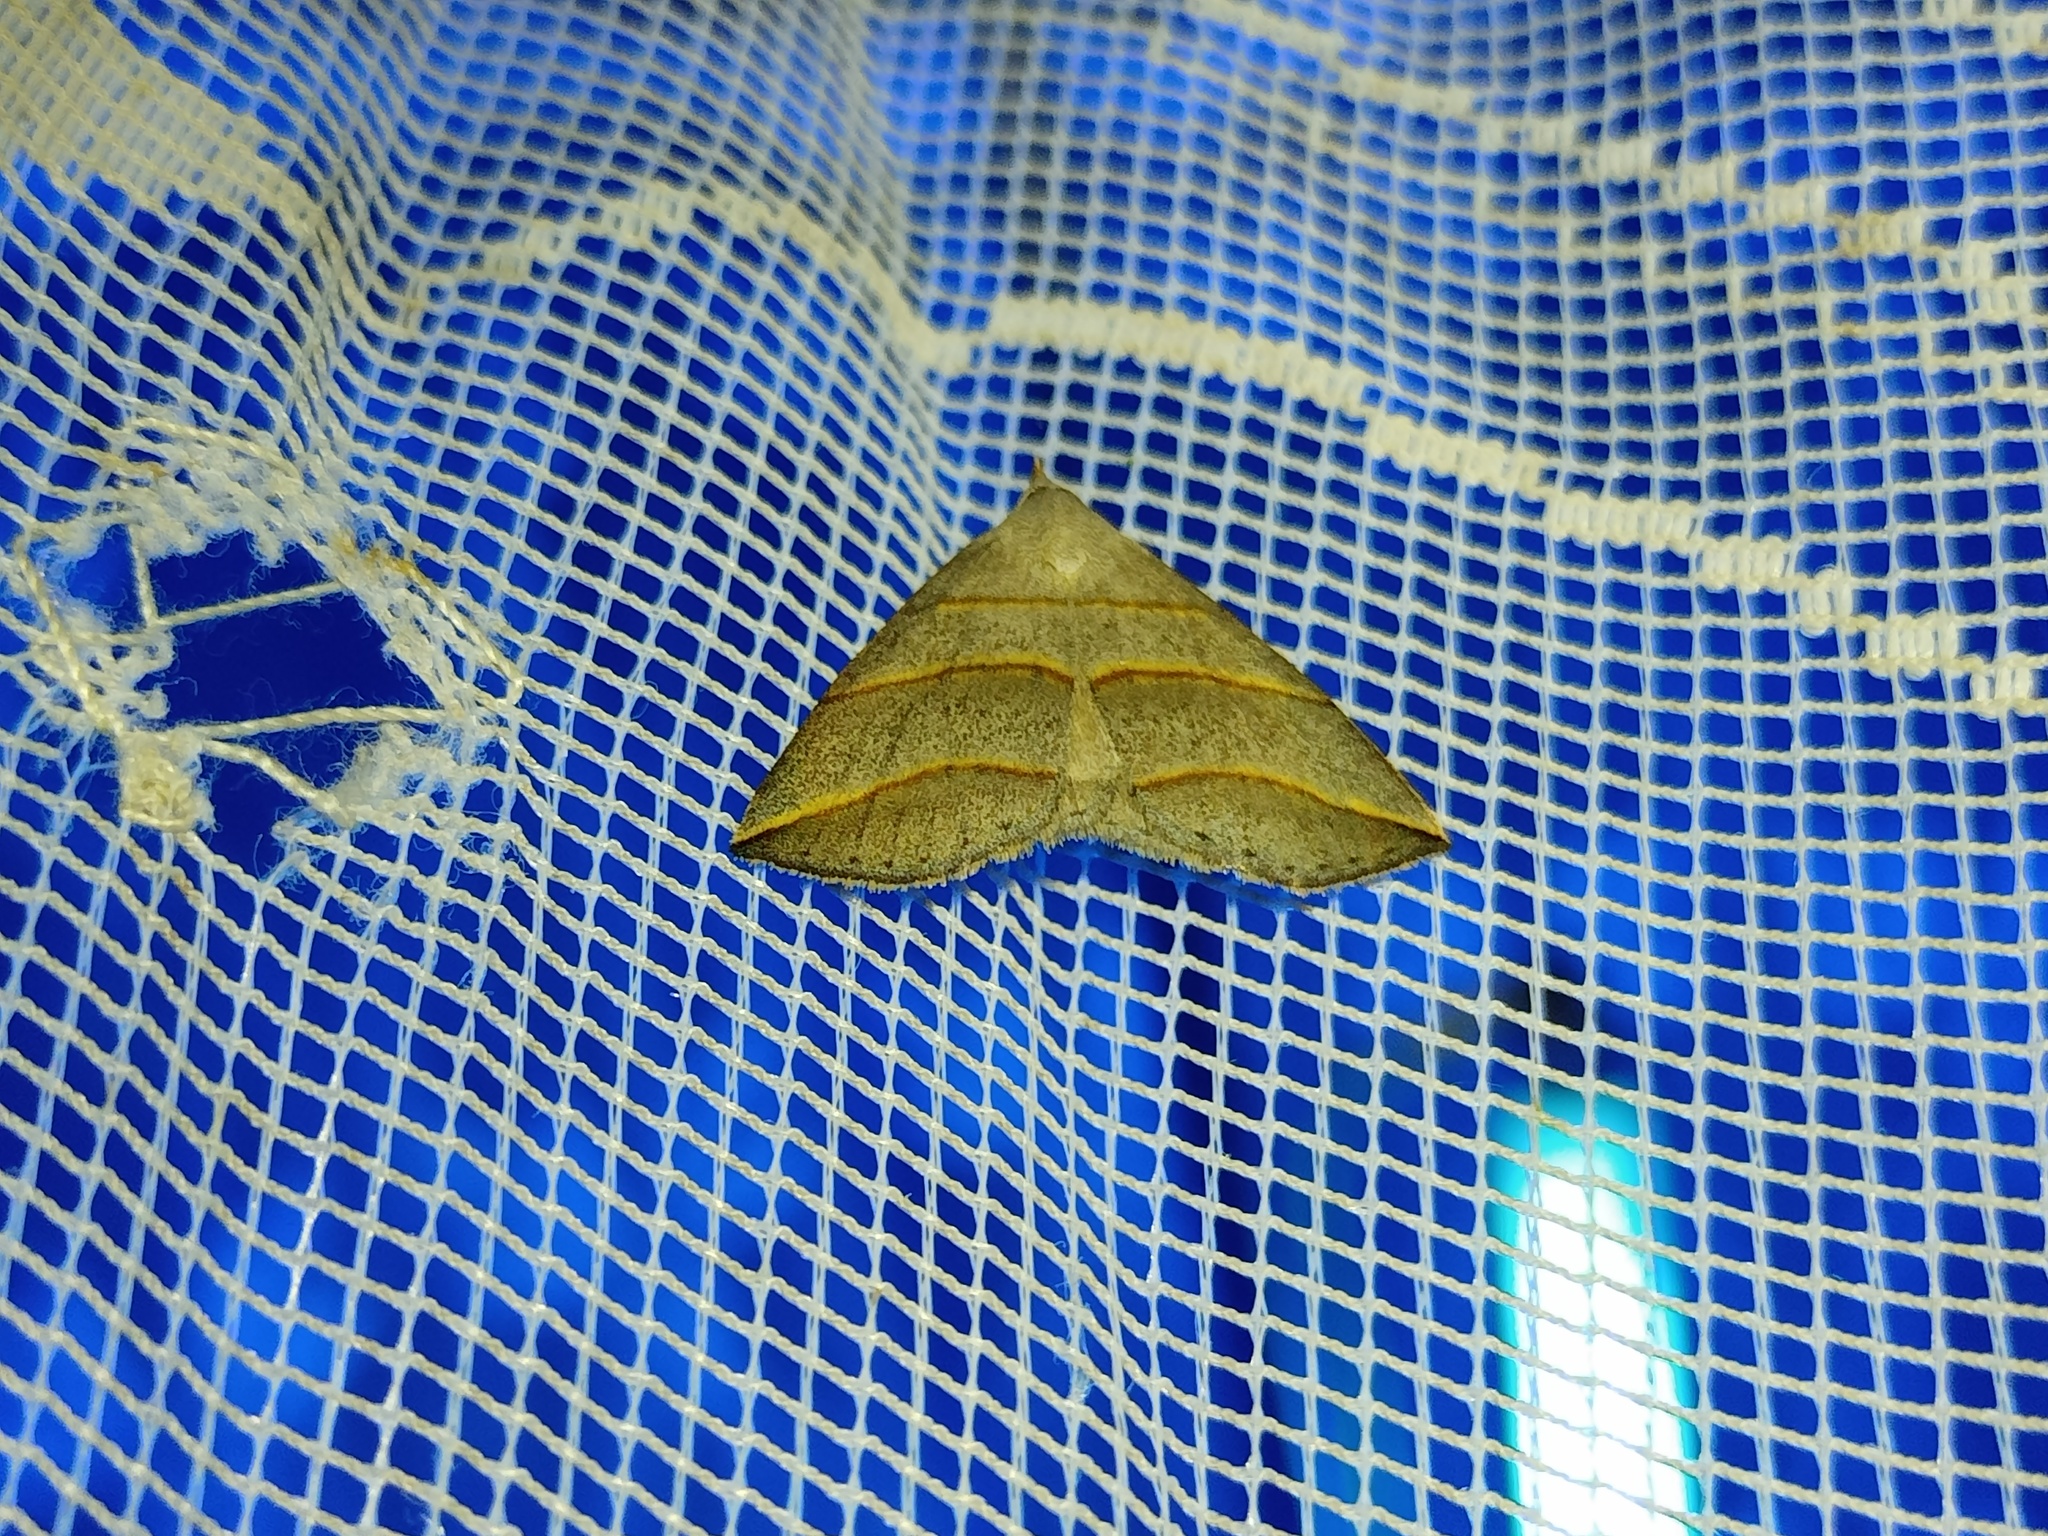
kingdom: Animalia
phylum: Arthropoda
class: Insecta
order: Lepidoptera
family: Erebidae
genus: Colobochyla
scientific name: Colobochyla salicalis
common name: Lesser belle
